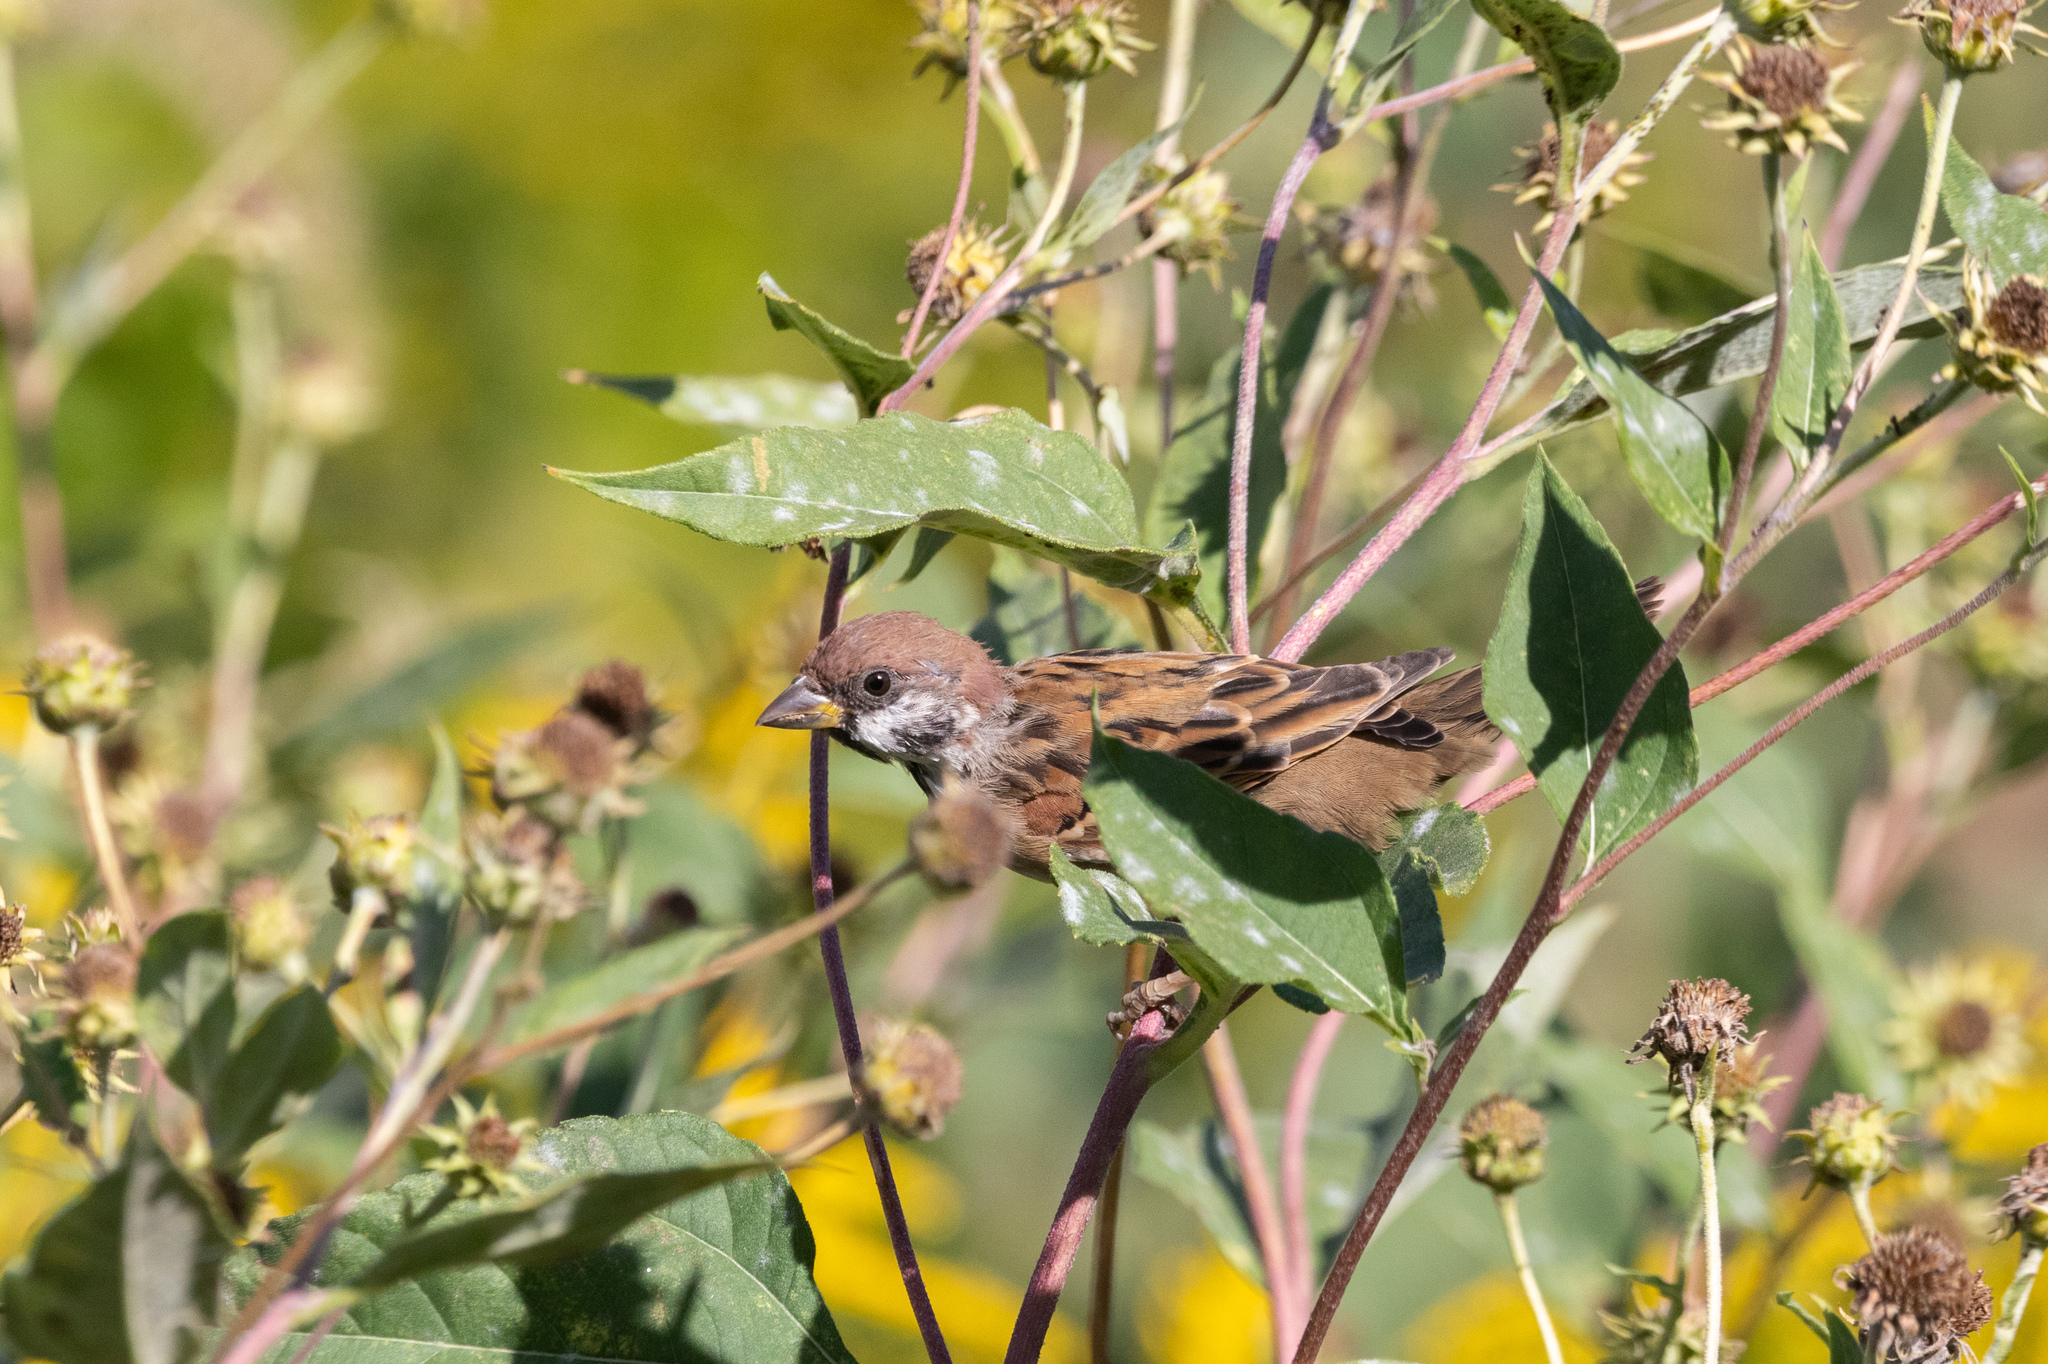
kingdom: Animalia
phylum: Chordata
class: Aves
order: Passeriformes
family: Passeridae
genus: Passer
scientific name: Passer montanus
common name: Eurasian tree sparrow
